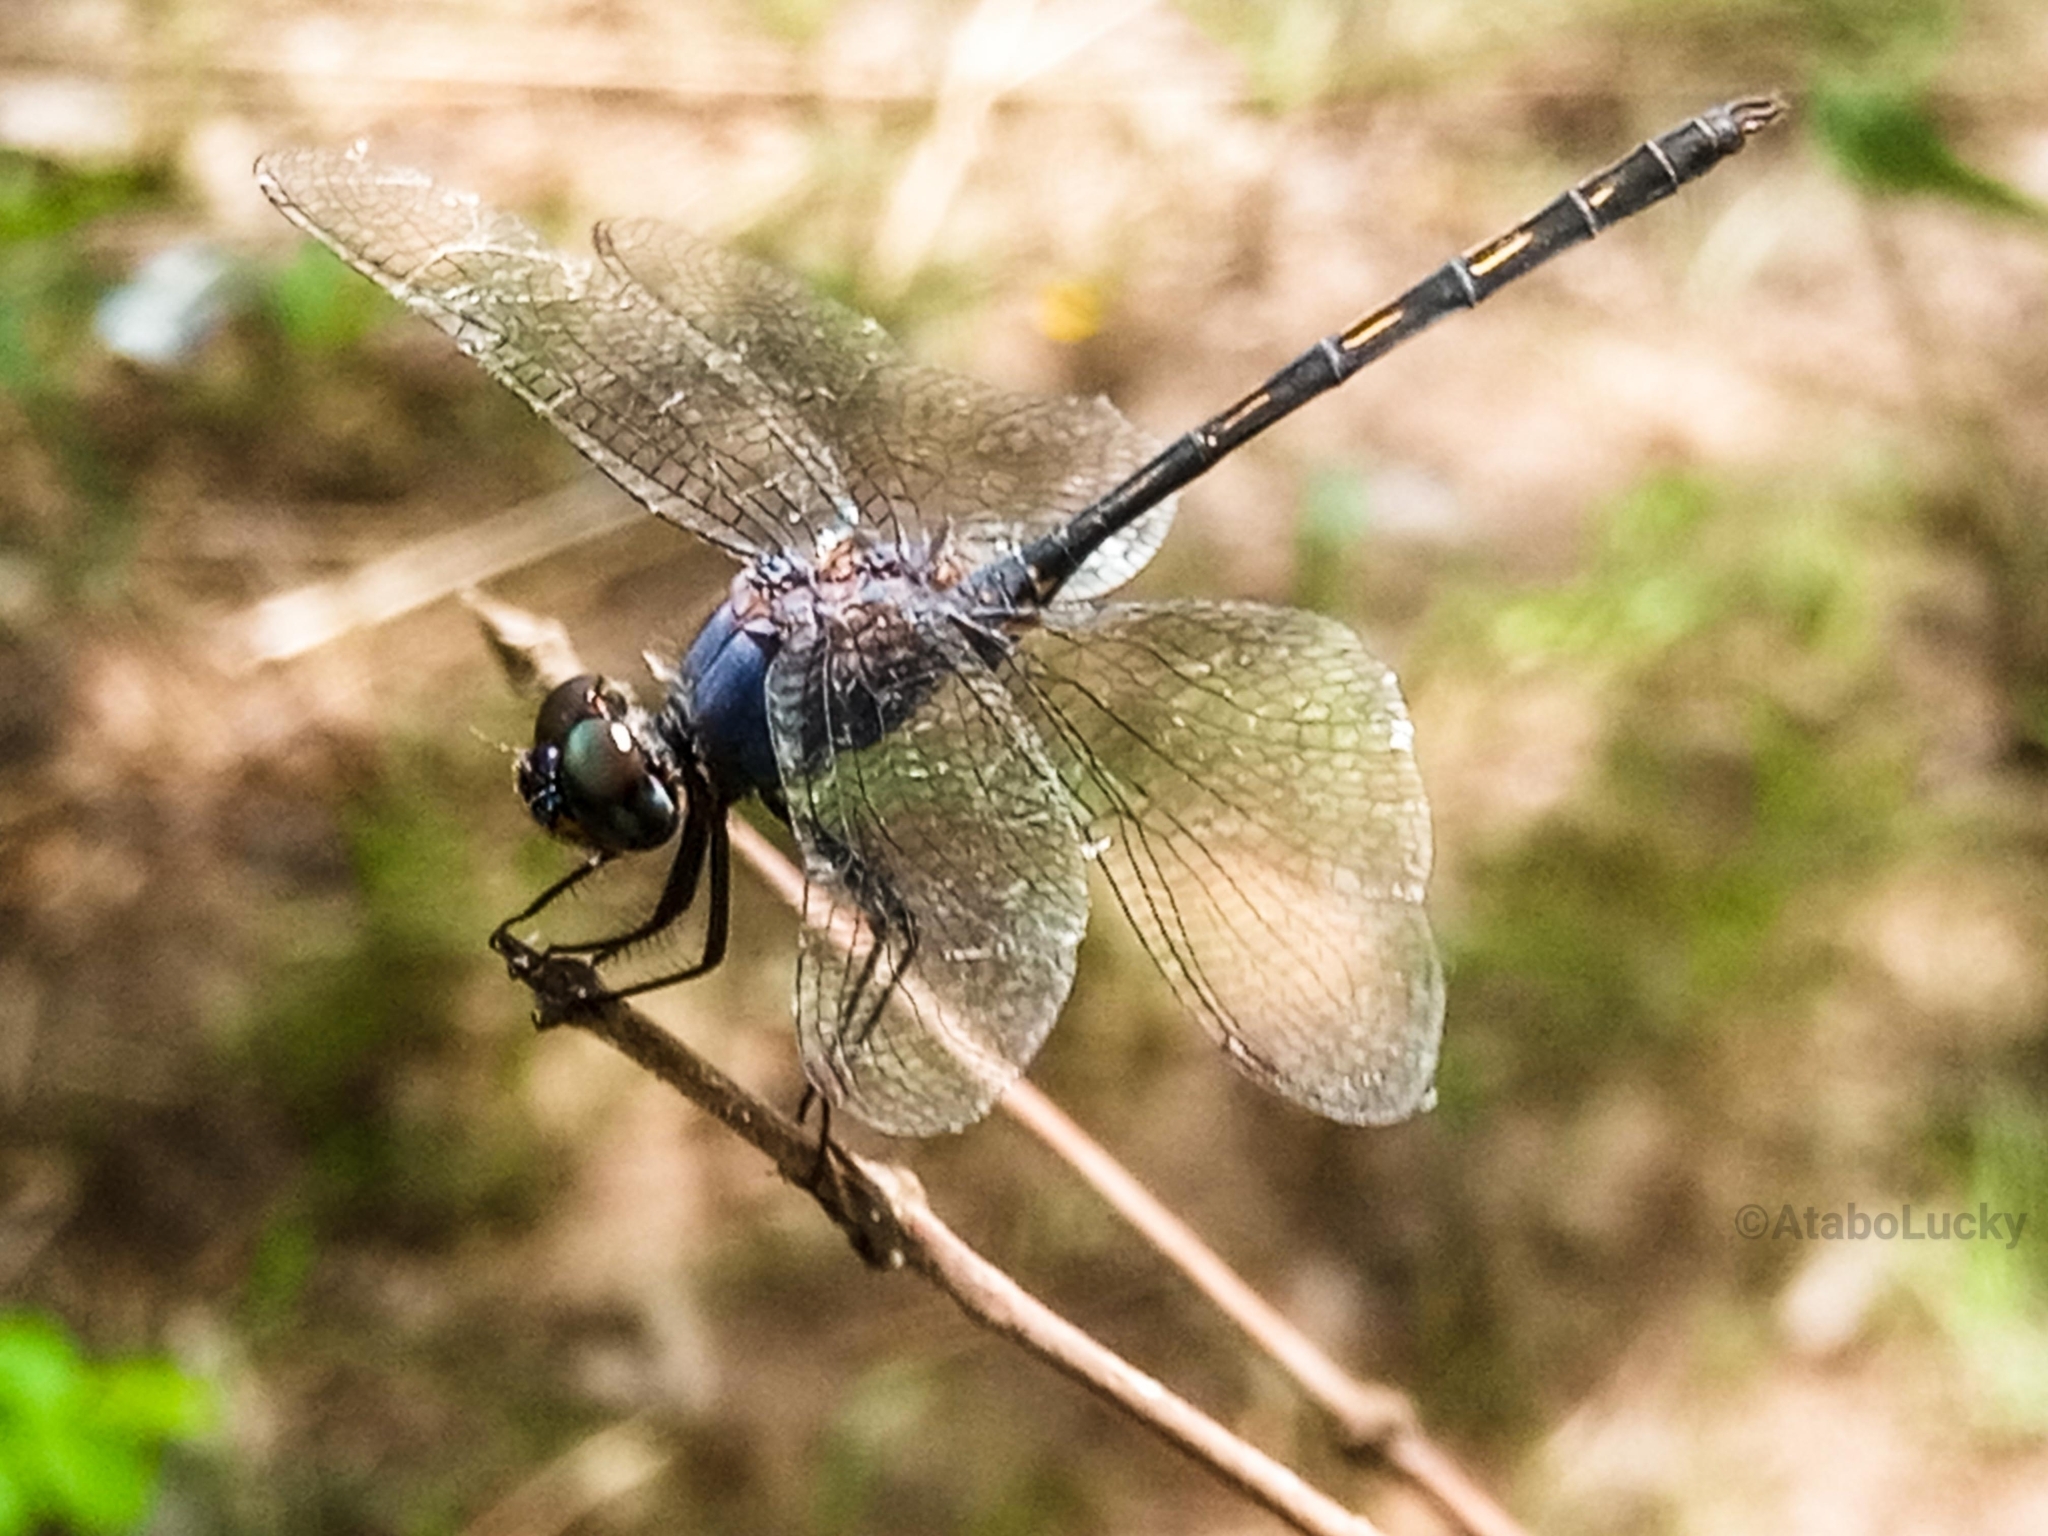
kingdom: Animalia
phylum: Arthropoda
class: Insecta
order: Odonata
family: Libellulidae
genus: Trithemis
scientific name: Trithemis aconita
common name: Halfshade dropwing
